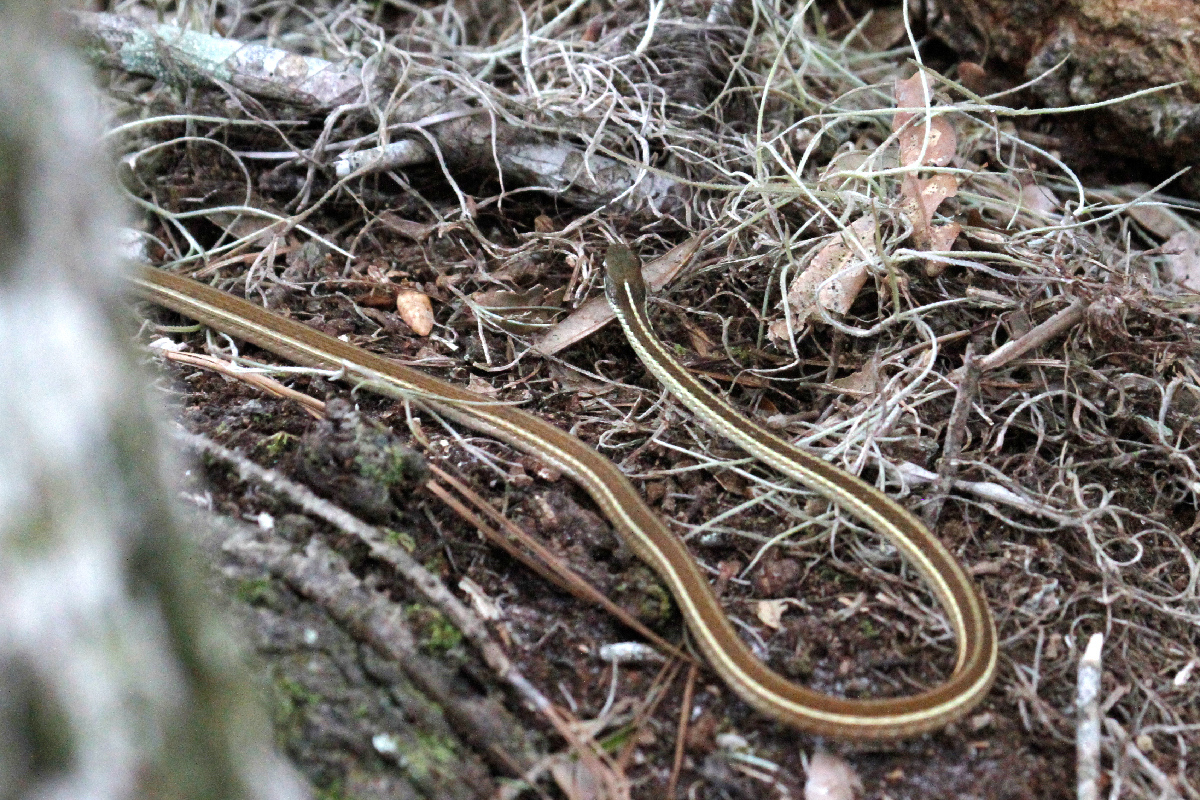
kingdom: Animalia
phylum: Chordata
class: Squamata
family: Colubridae
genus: Thamnophis
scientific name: Thamnophis saurita
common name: Eastern ribbonsnake
